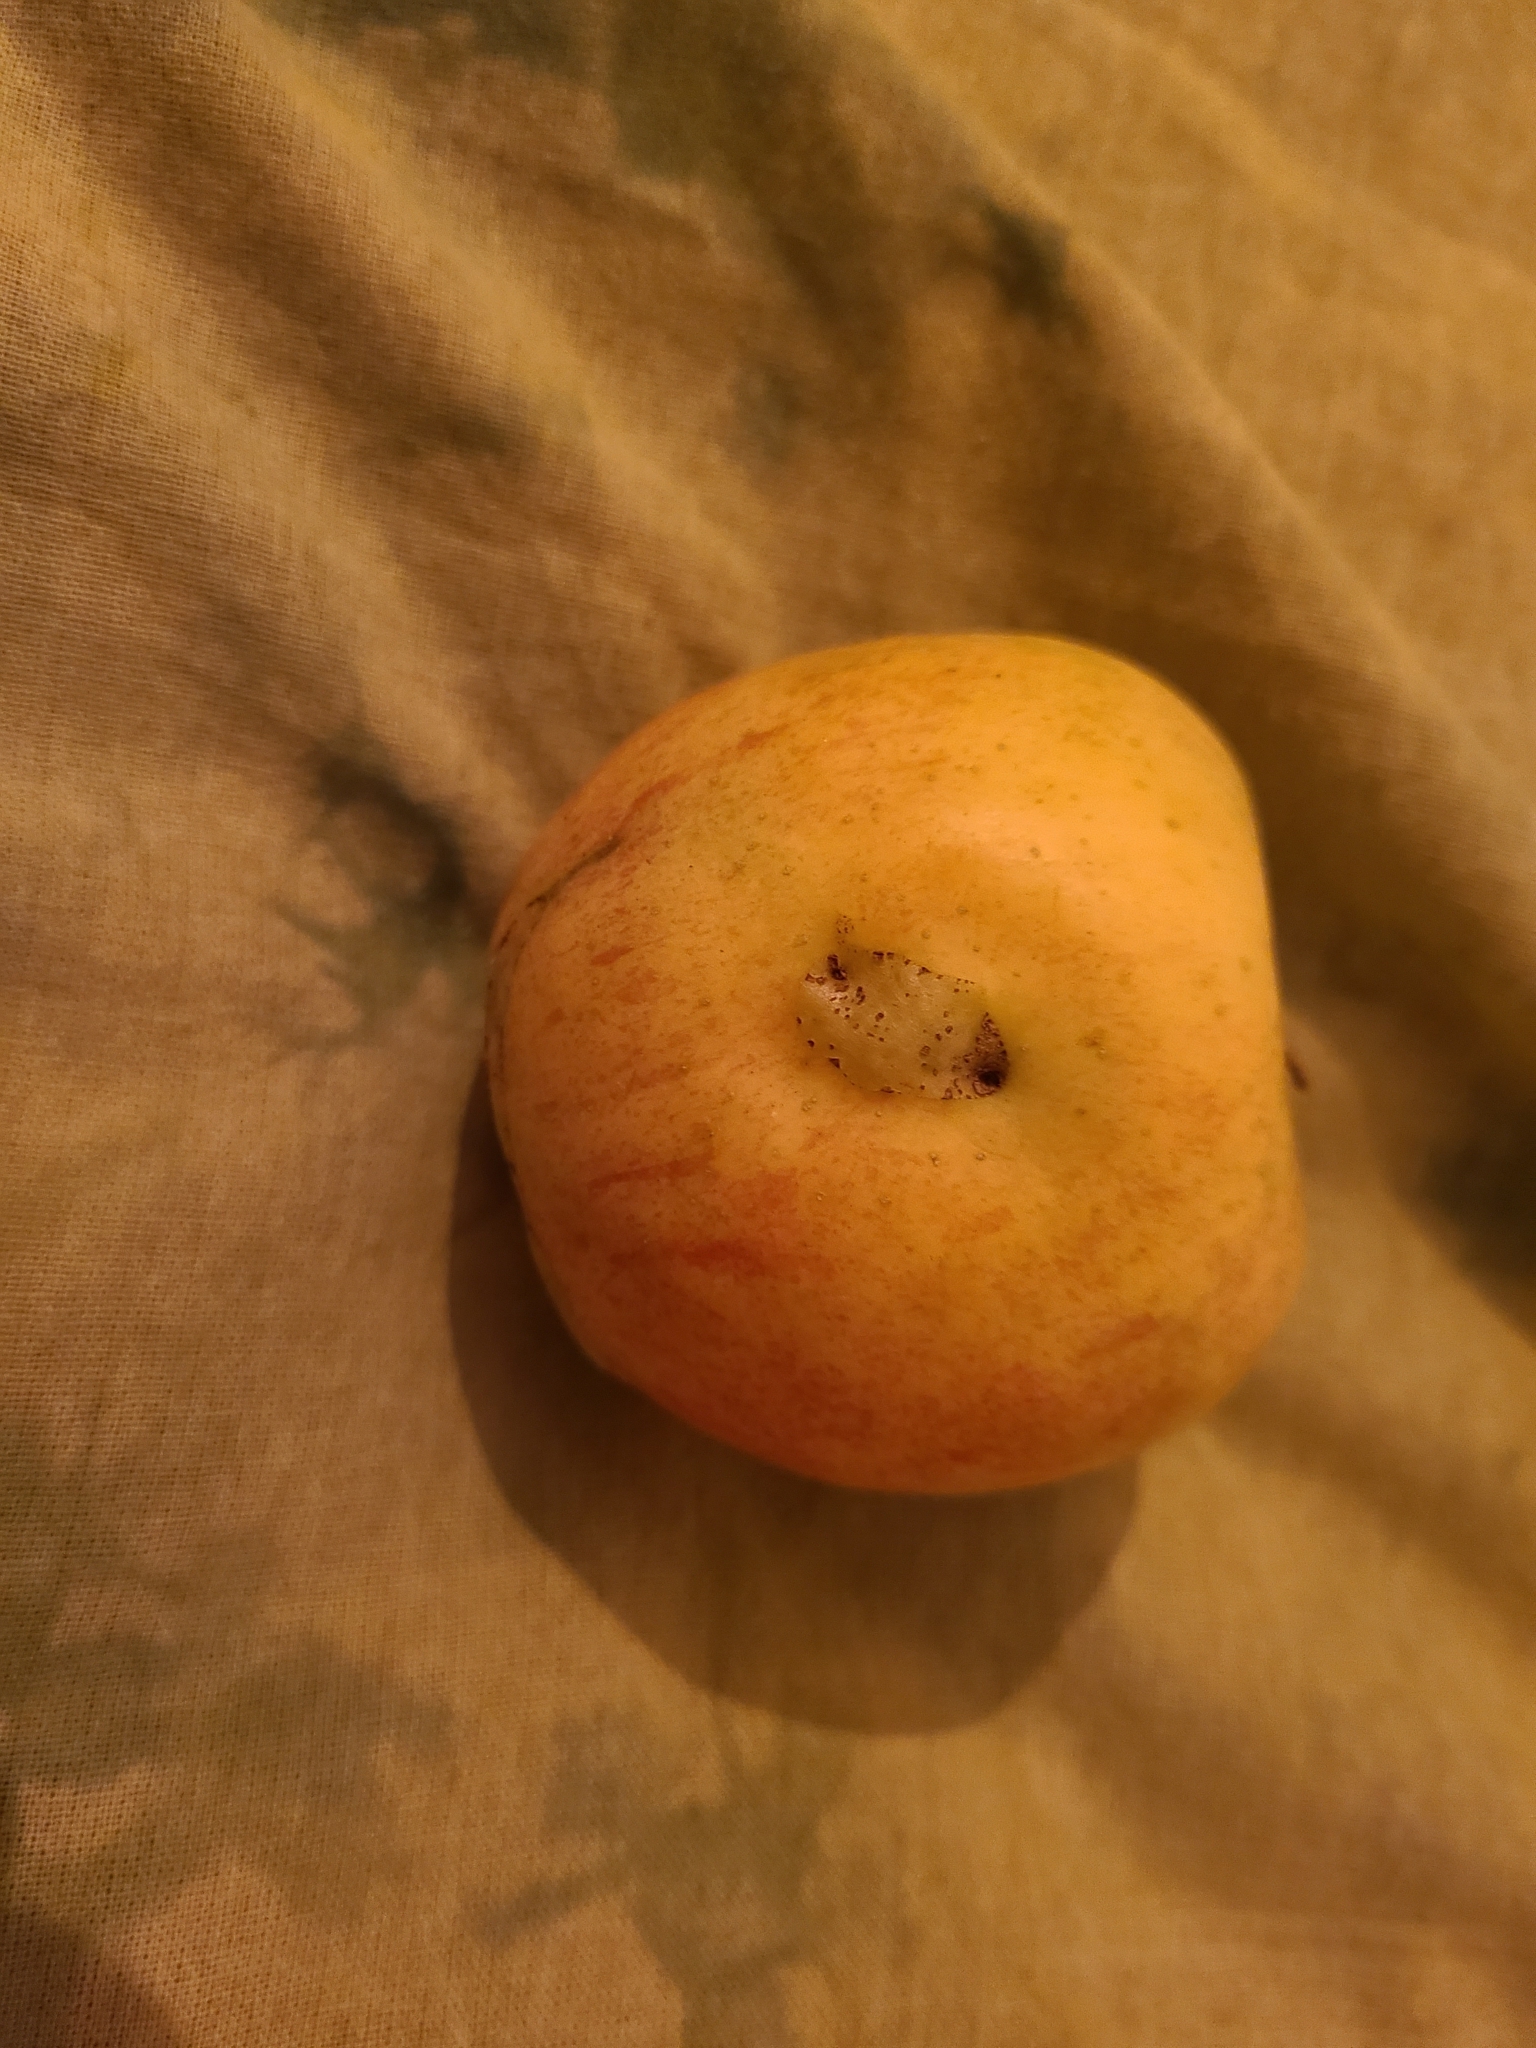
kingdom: Animalia
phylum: Arthropoda
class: Insecta
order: Hymenoptera
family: Tenthredinidae
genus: Hoplocampa
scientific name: Hoplocampa testudinea
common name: European apple sawfly
